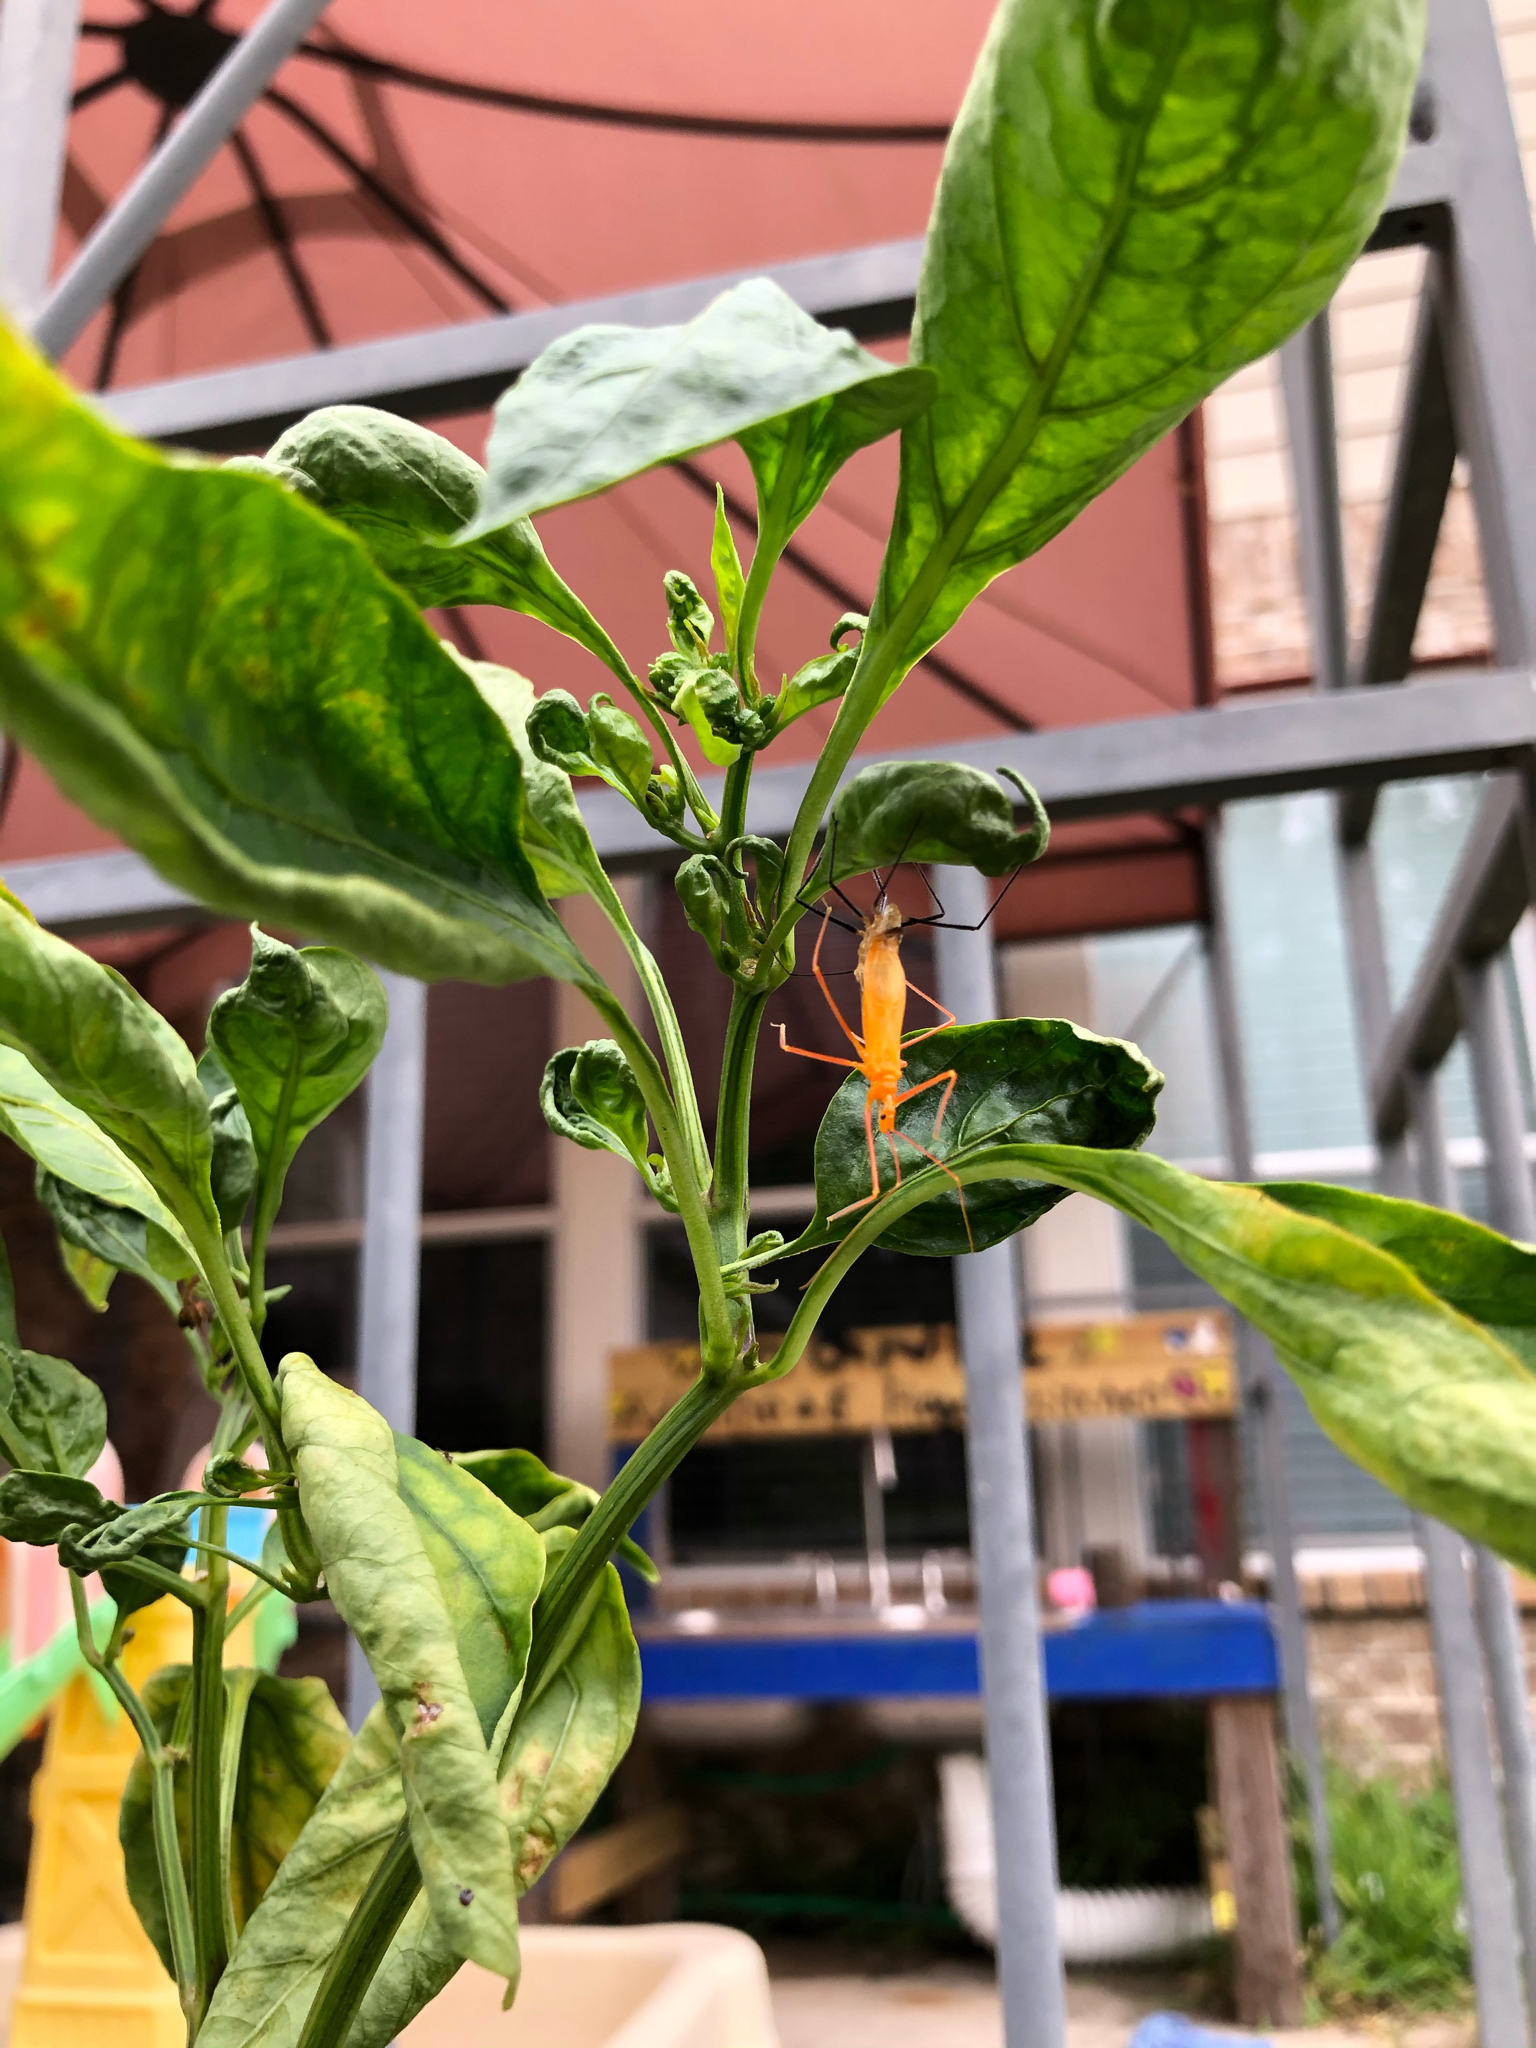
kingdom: Animalia
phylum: Arthropoda
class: Insecta
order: Hemiptera
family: Reduviidae
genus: Zelus
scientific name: Zelus longipes
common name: Milkweed assassin bug
